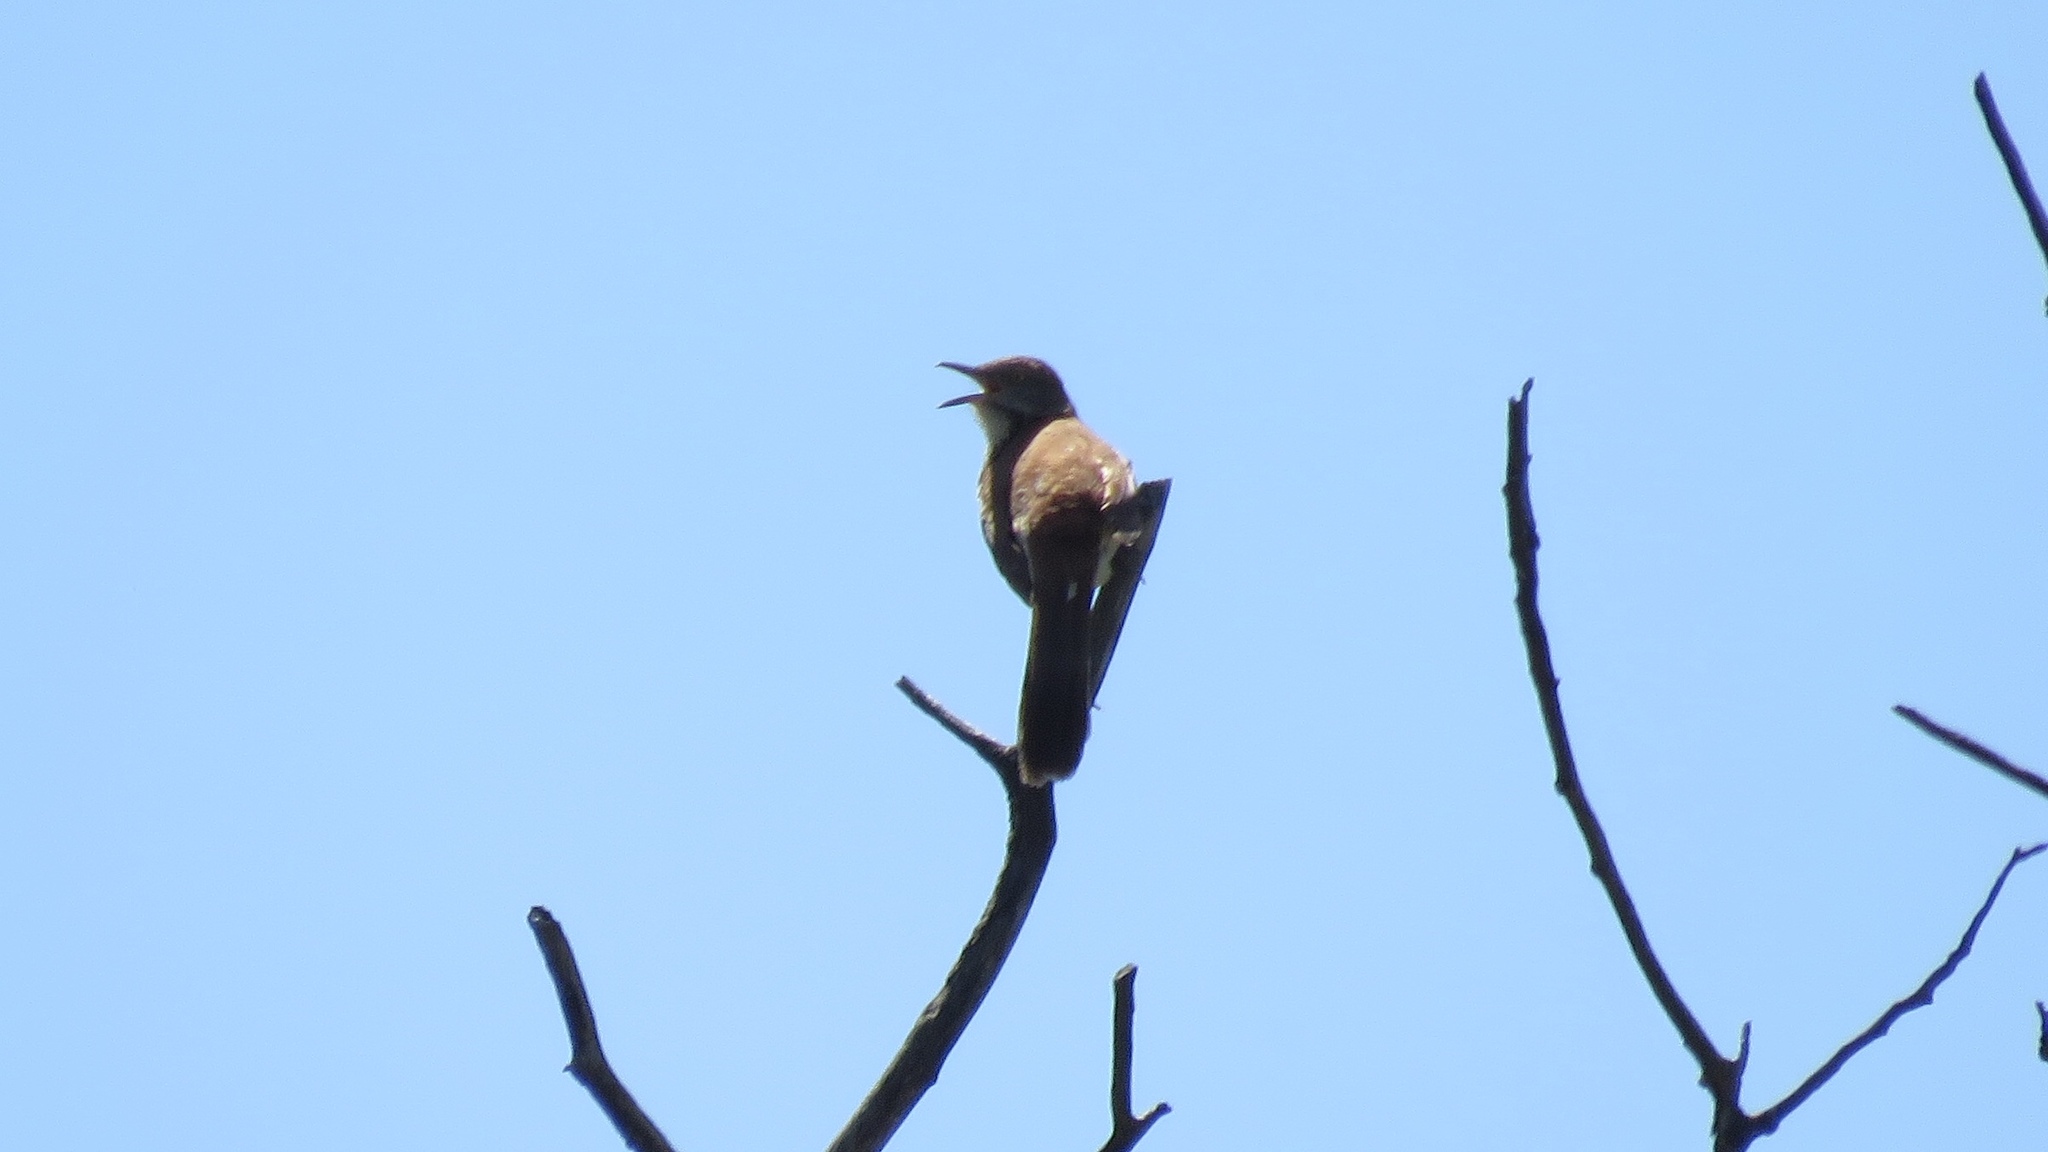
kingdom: Animalia
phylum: Chordata
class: Aves
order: Passeriformes
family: Mimidae
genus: Toxostoma
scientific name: Toxostoma rufum
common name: Brown thrasher
